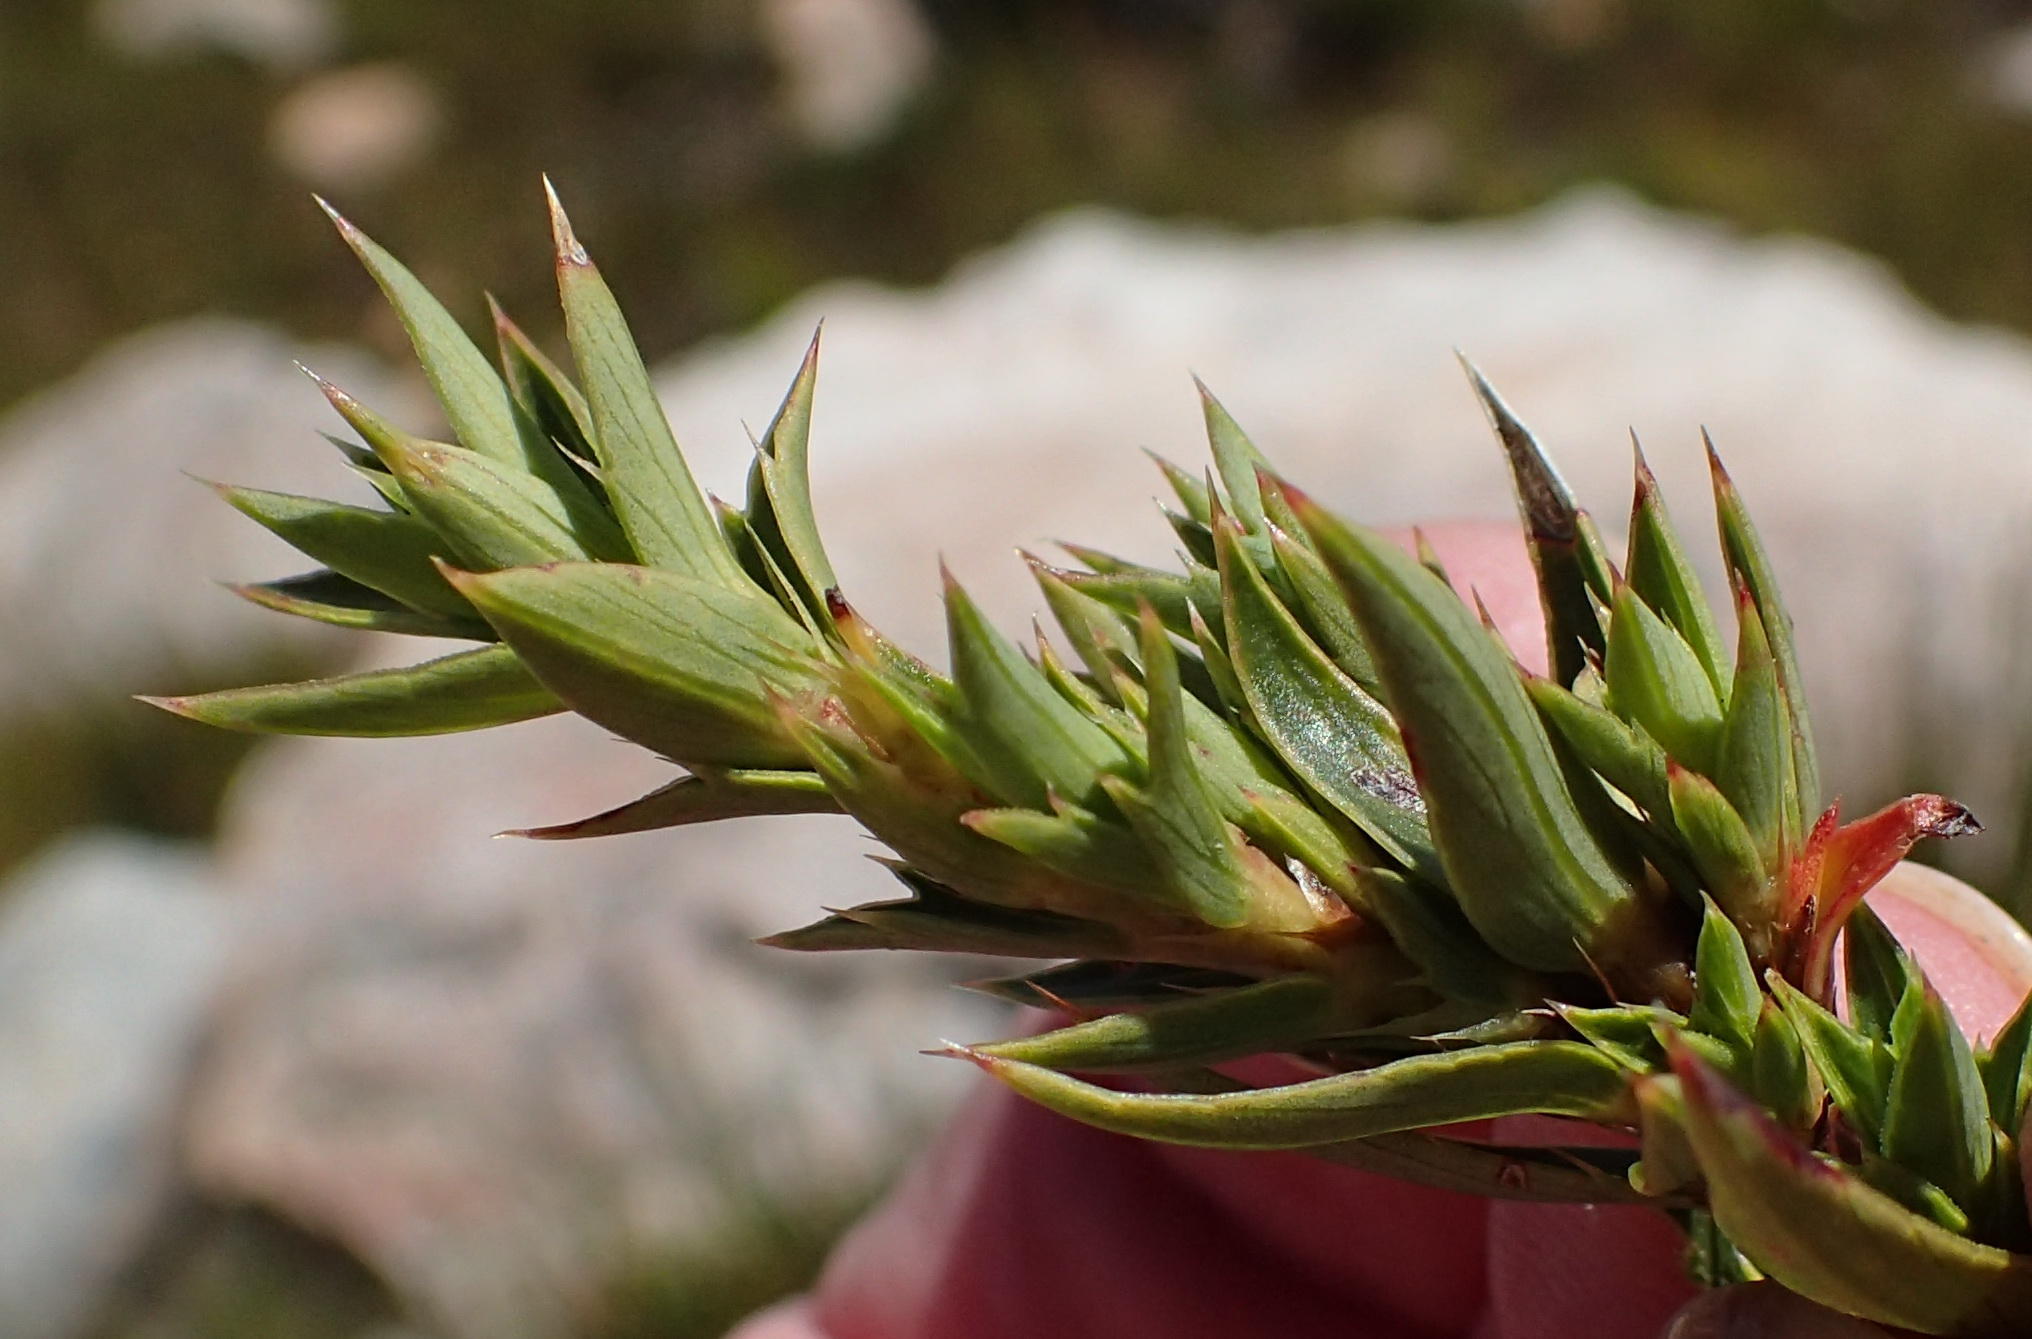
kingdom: Plantae
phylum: Tracheophyta
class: Magnoliopsida
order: Rosales
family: Rosaceae
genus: Cliffortia
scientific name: Cliffortia ilicifolia
